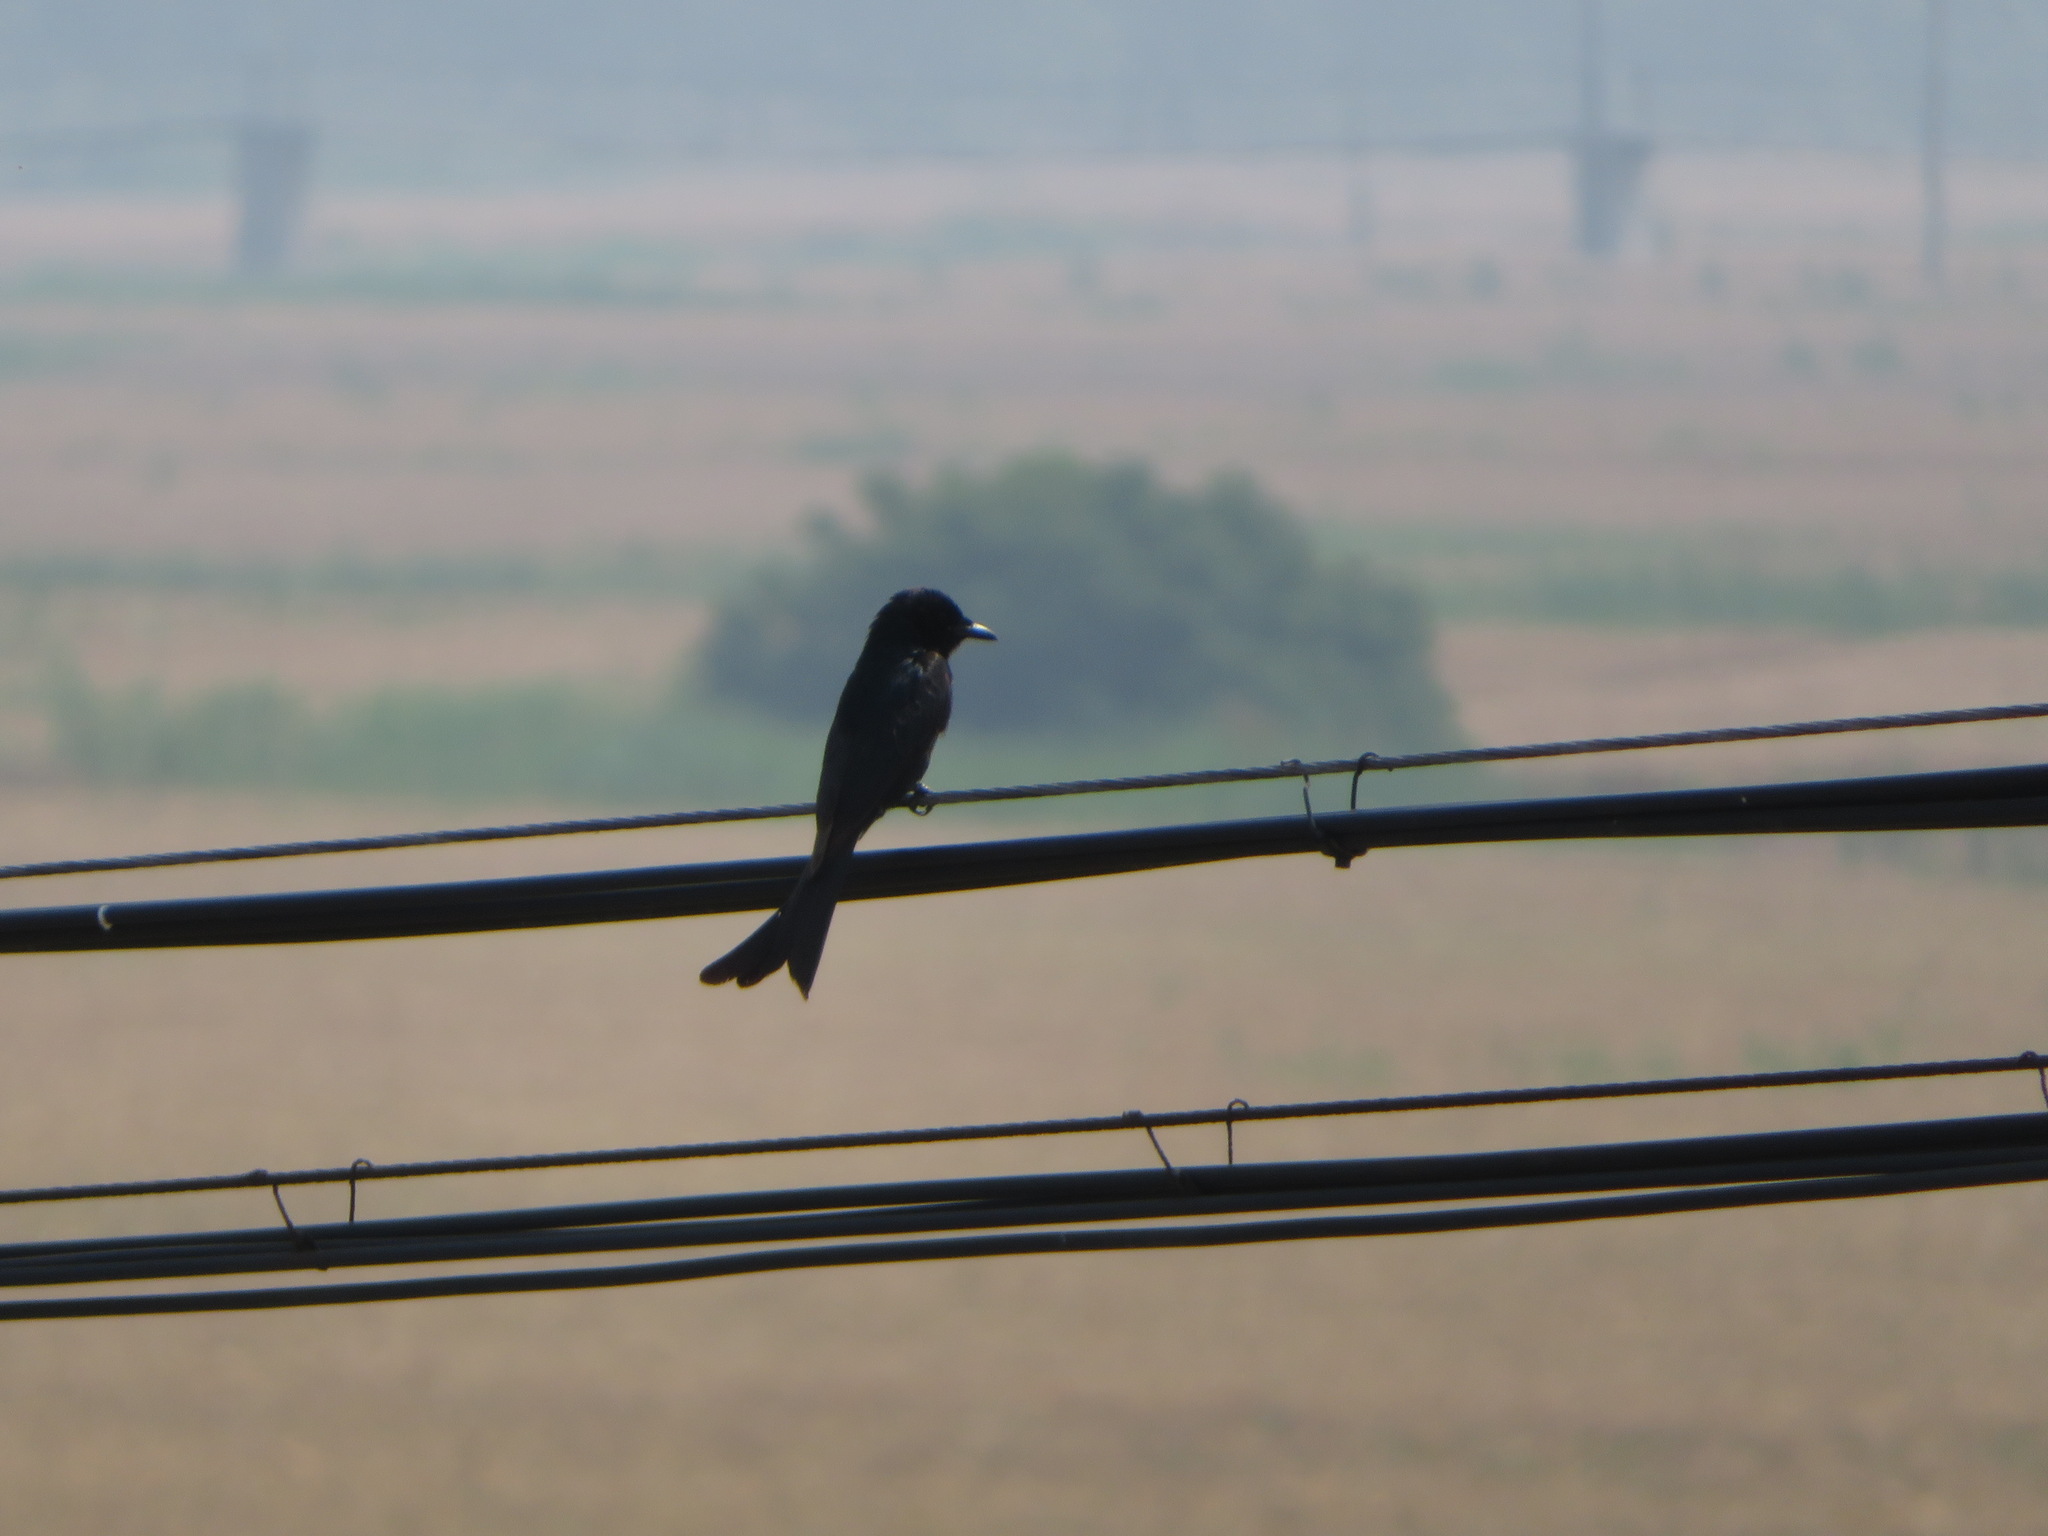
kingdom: Animalia
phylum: Chordata
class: Aves
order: Passeriformes
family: Dicruridae
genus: Dicrurus
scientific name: Dicrurus macrocercus
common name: Black drongo
